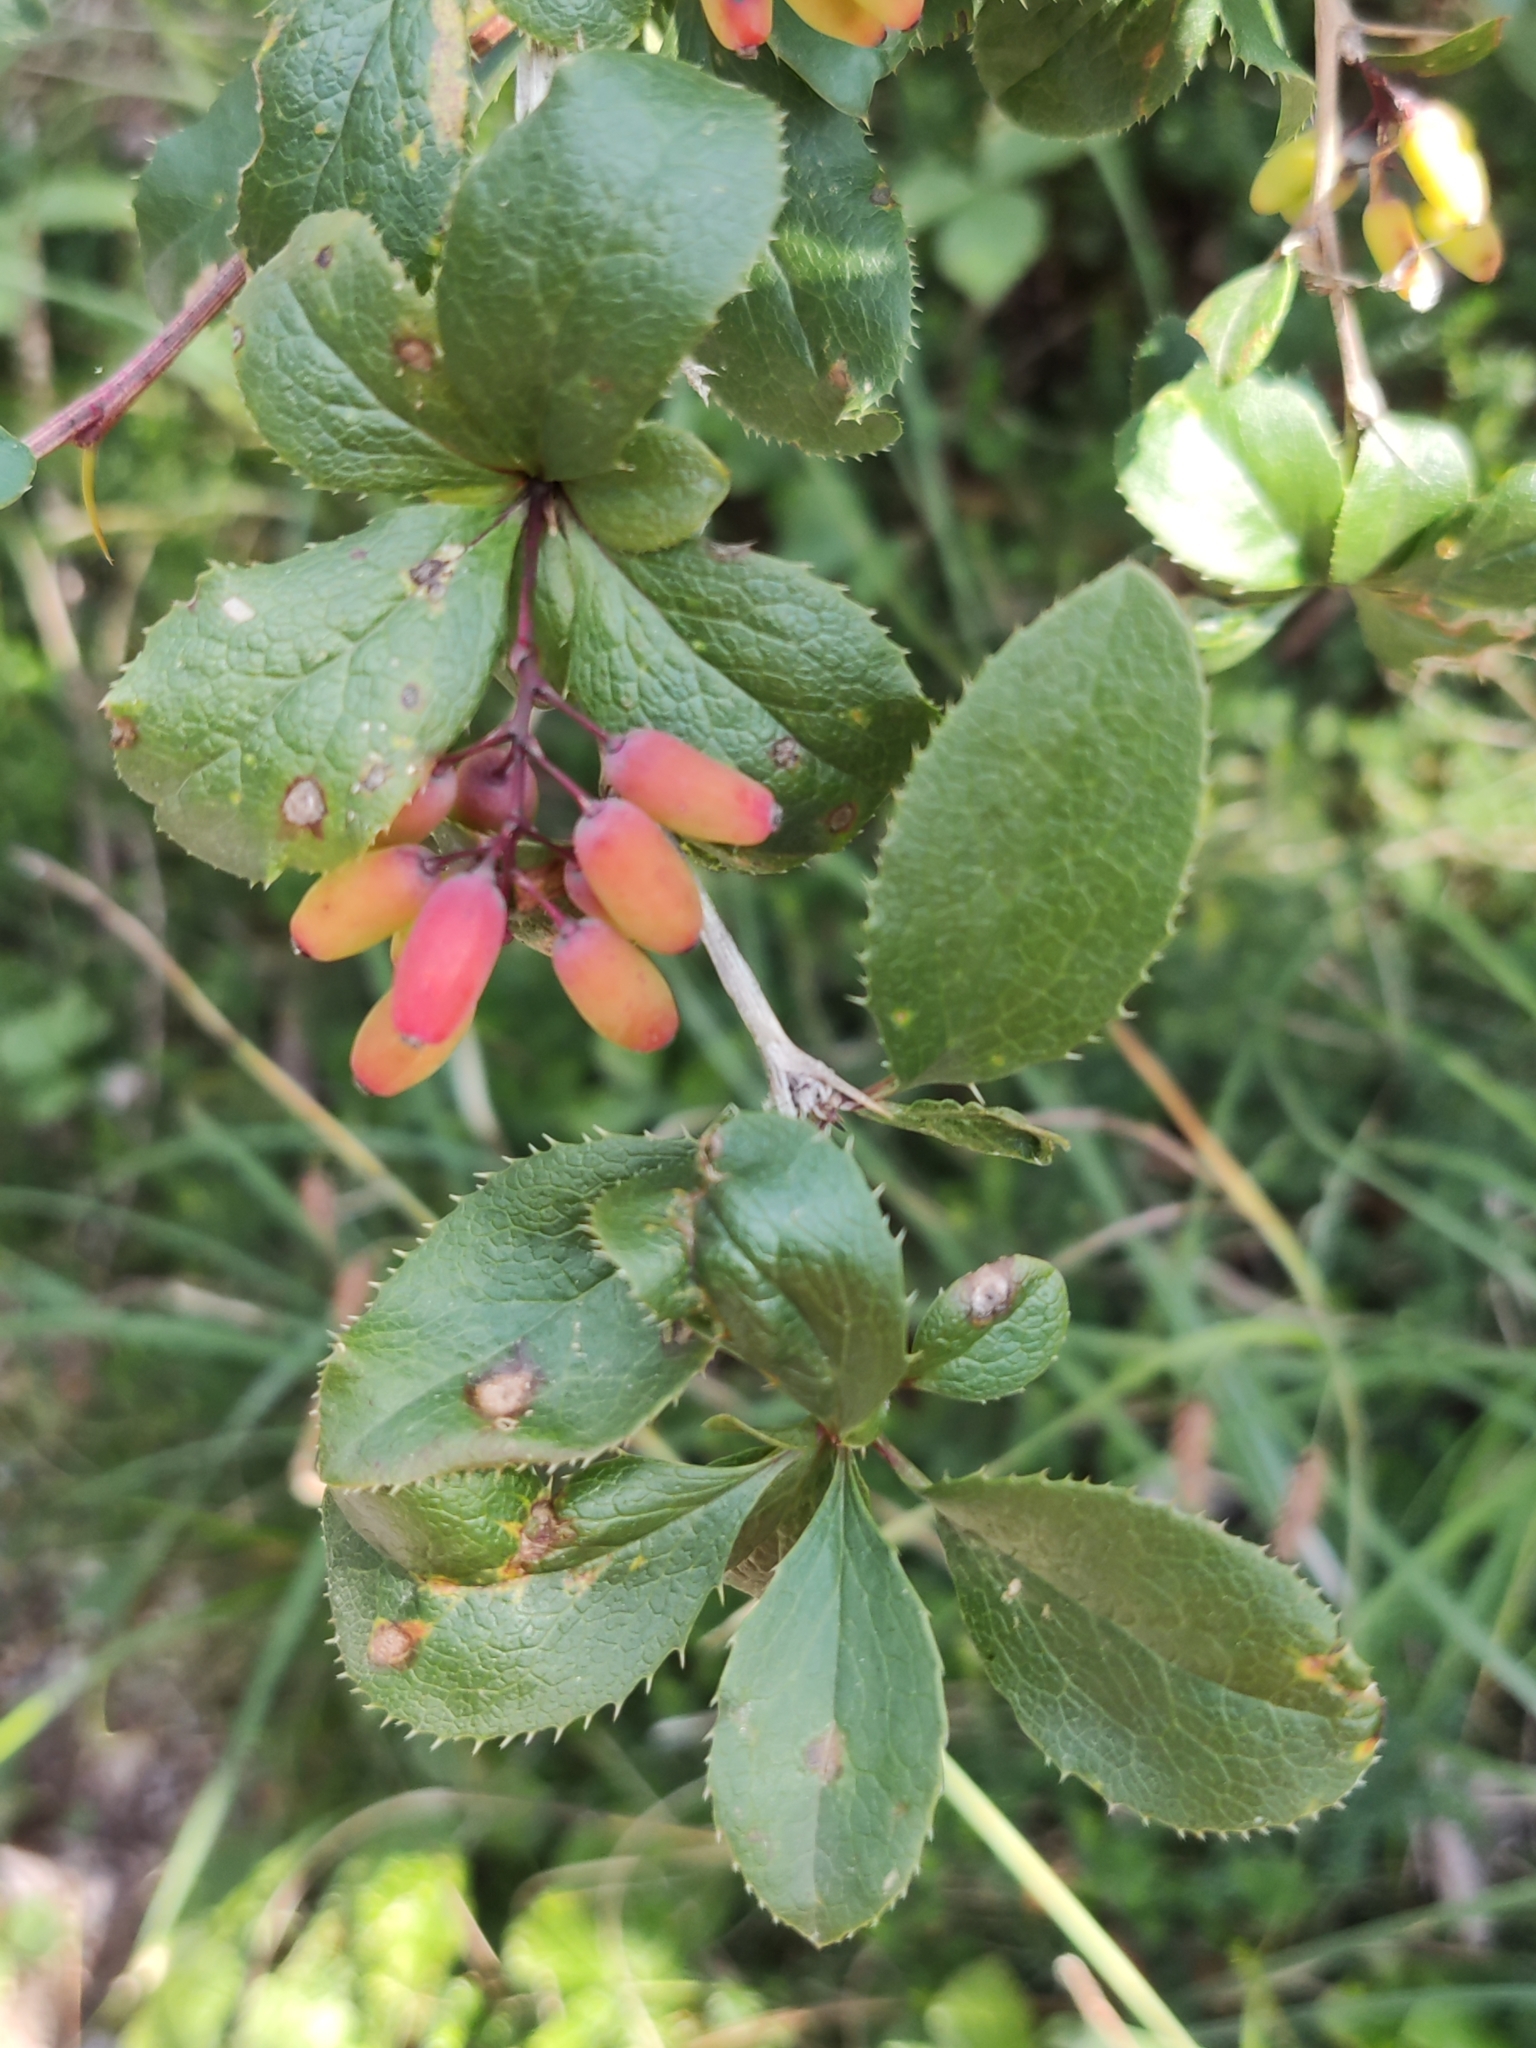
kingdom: Plantae
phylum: Tracheophyta
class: Magnoliopsida
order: Ranunculales
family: Berberidaceae
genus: Berberis
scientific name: Berberis vulgaris
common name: Barberry
